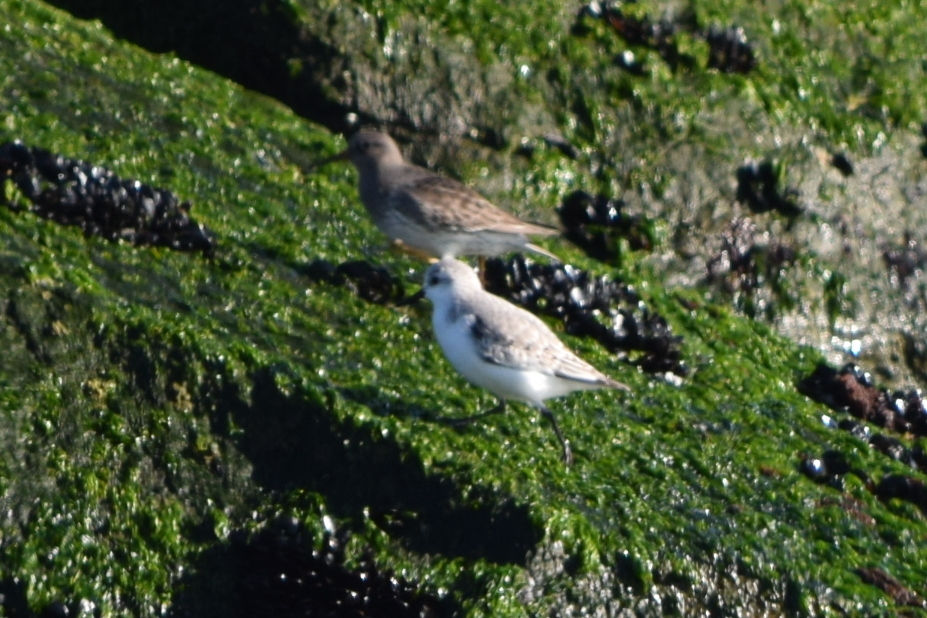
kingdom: Animalia
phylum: Chordata
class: Aves
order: Charadriiformes
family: Scolopacidae
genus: Calidris
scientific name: Calidris maritima
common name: Purple sandpiper
